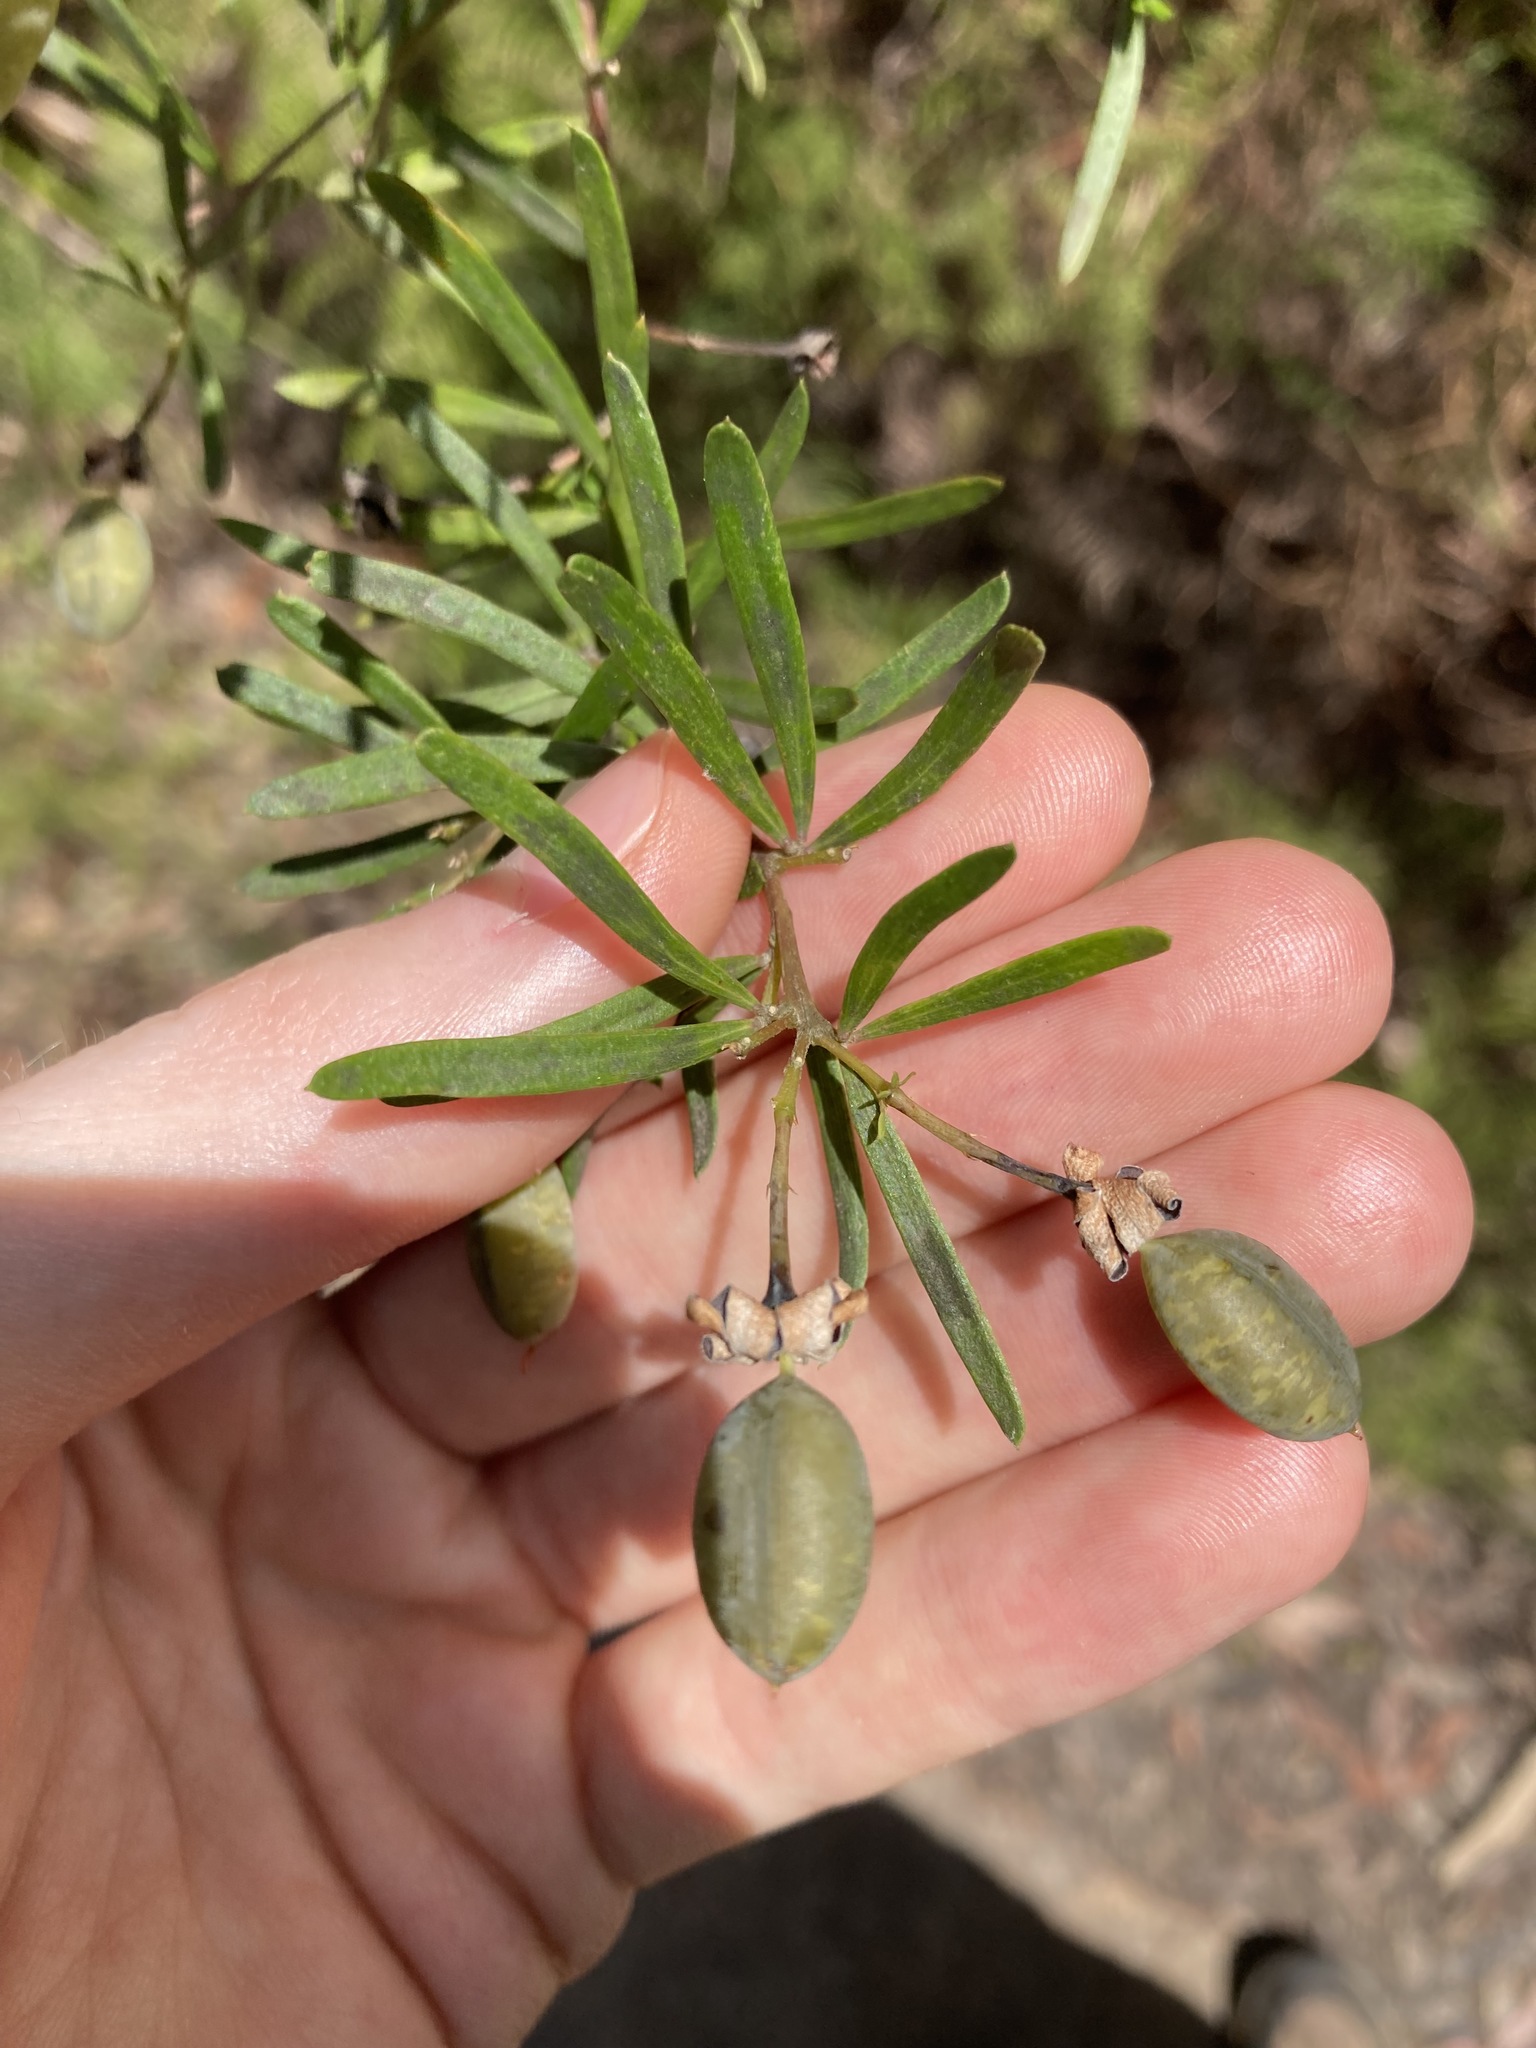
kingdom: Plantae
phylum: Tracheophyta
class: Magnoliopsida
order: Fabales
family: Fabaceae
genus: Gompholobium
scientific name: Gompholobium latifolium
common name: Broadleaf wedge-pea
